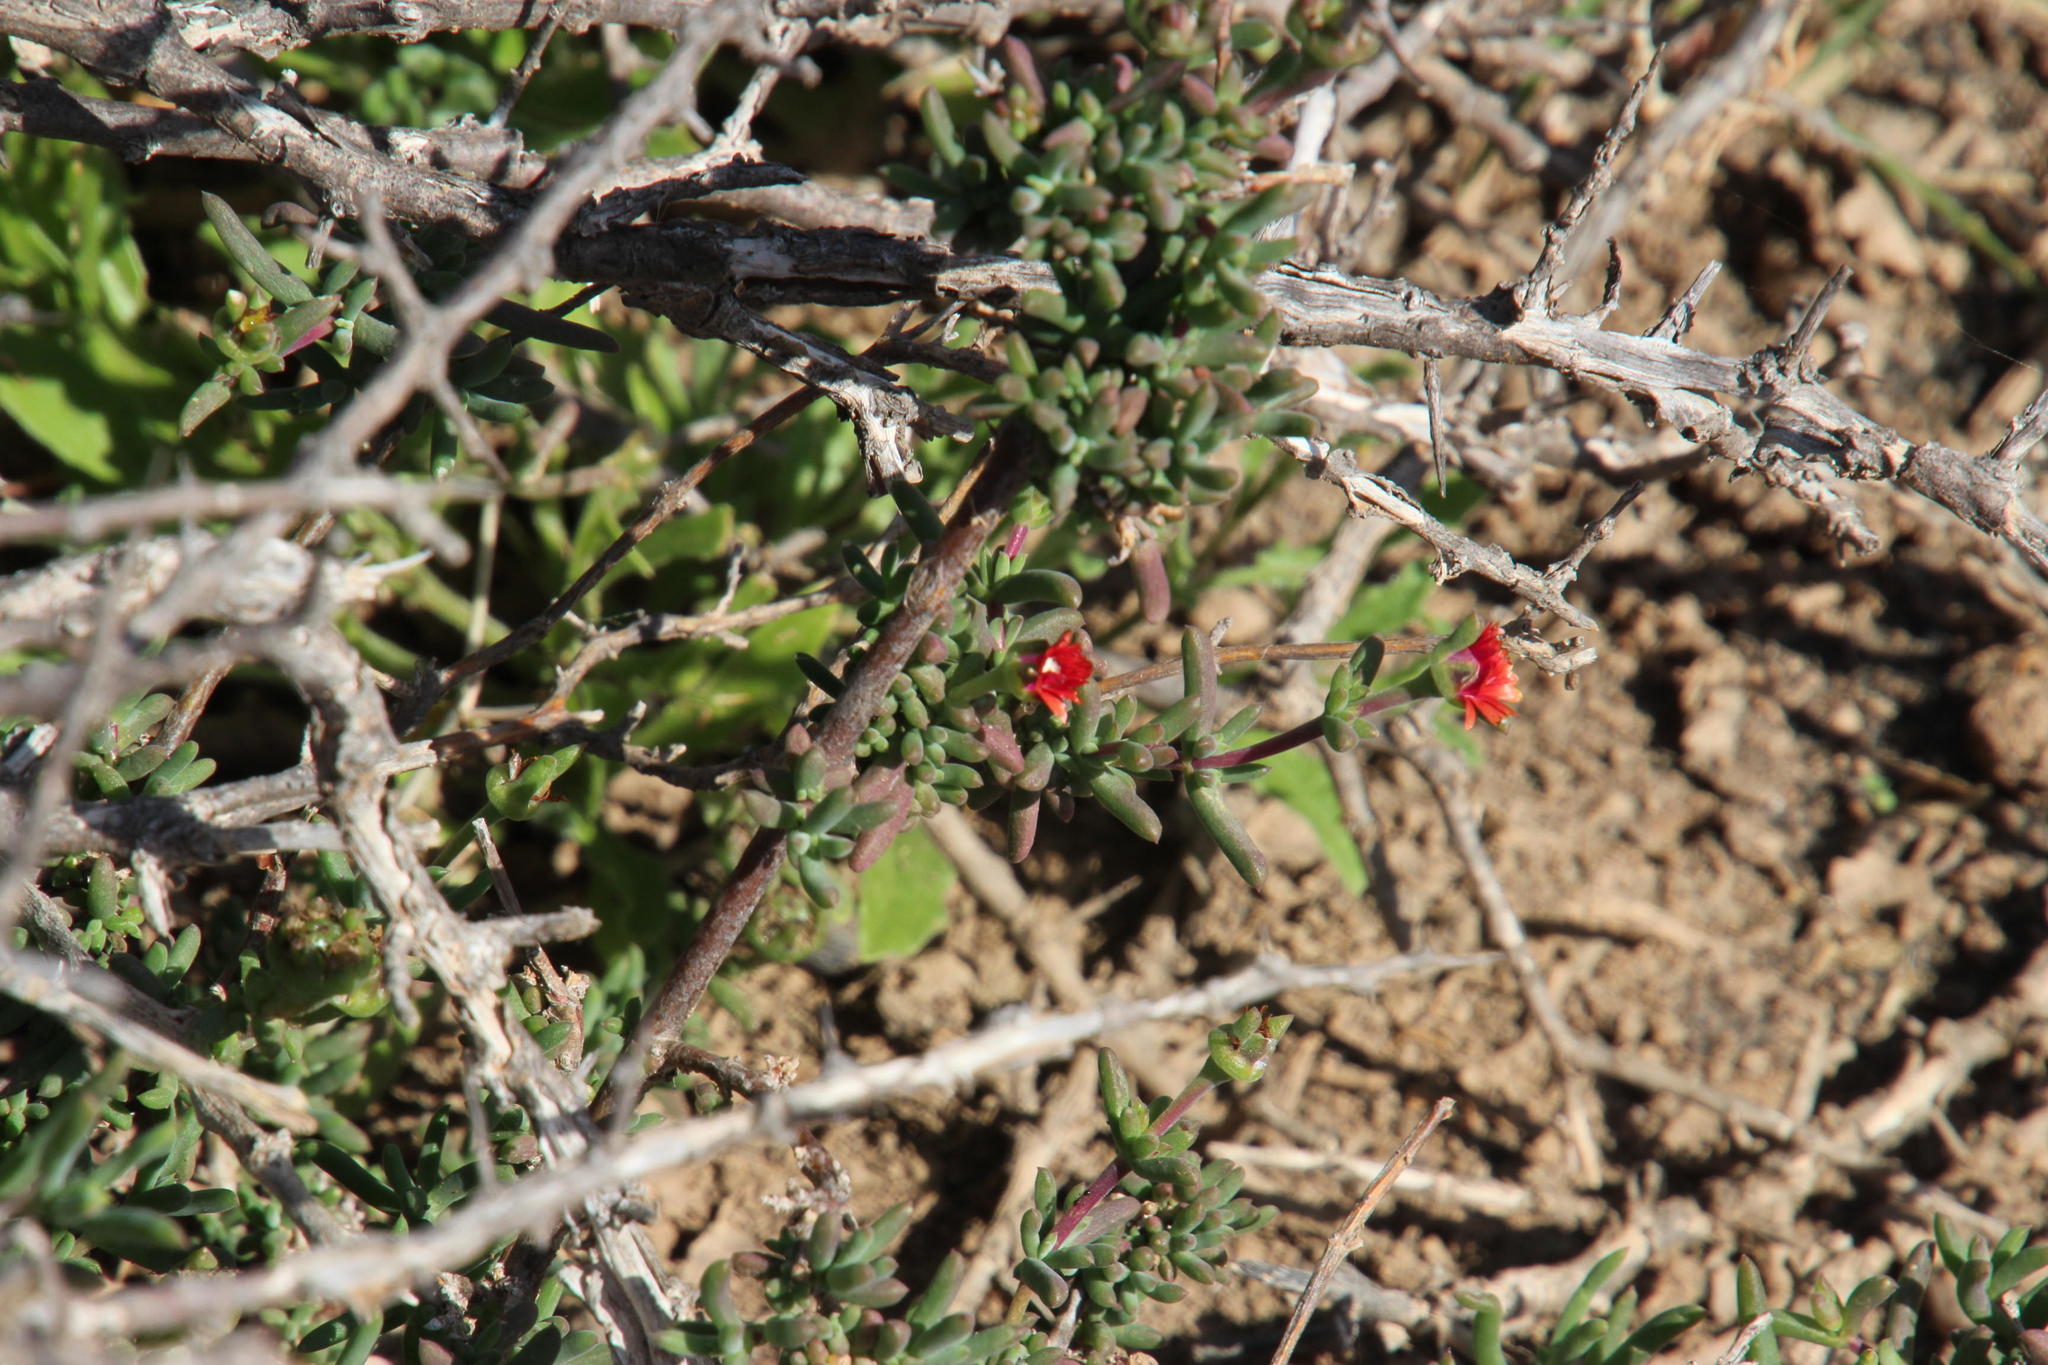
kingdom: Plantae
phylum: Tracheophyta
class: Magnoliopsida
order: Caryophyllales
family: Aizoaceae
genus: Delosperma
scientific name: Delosperma multiflorum
